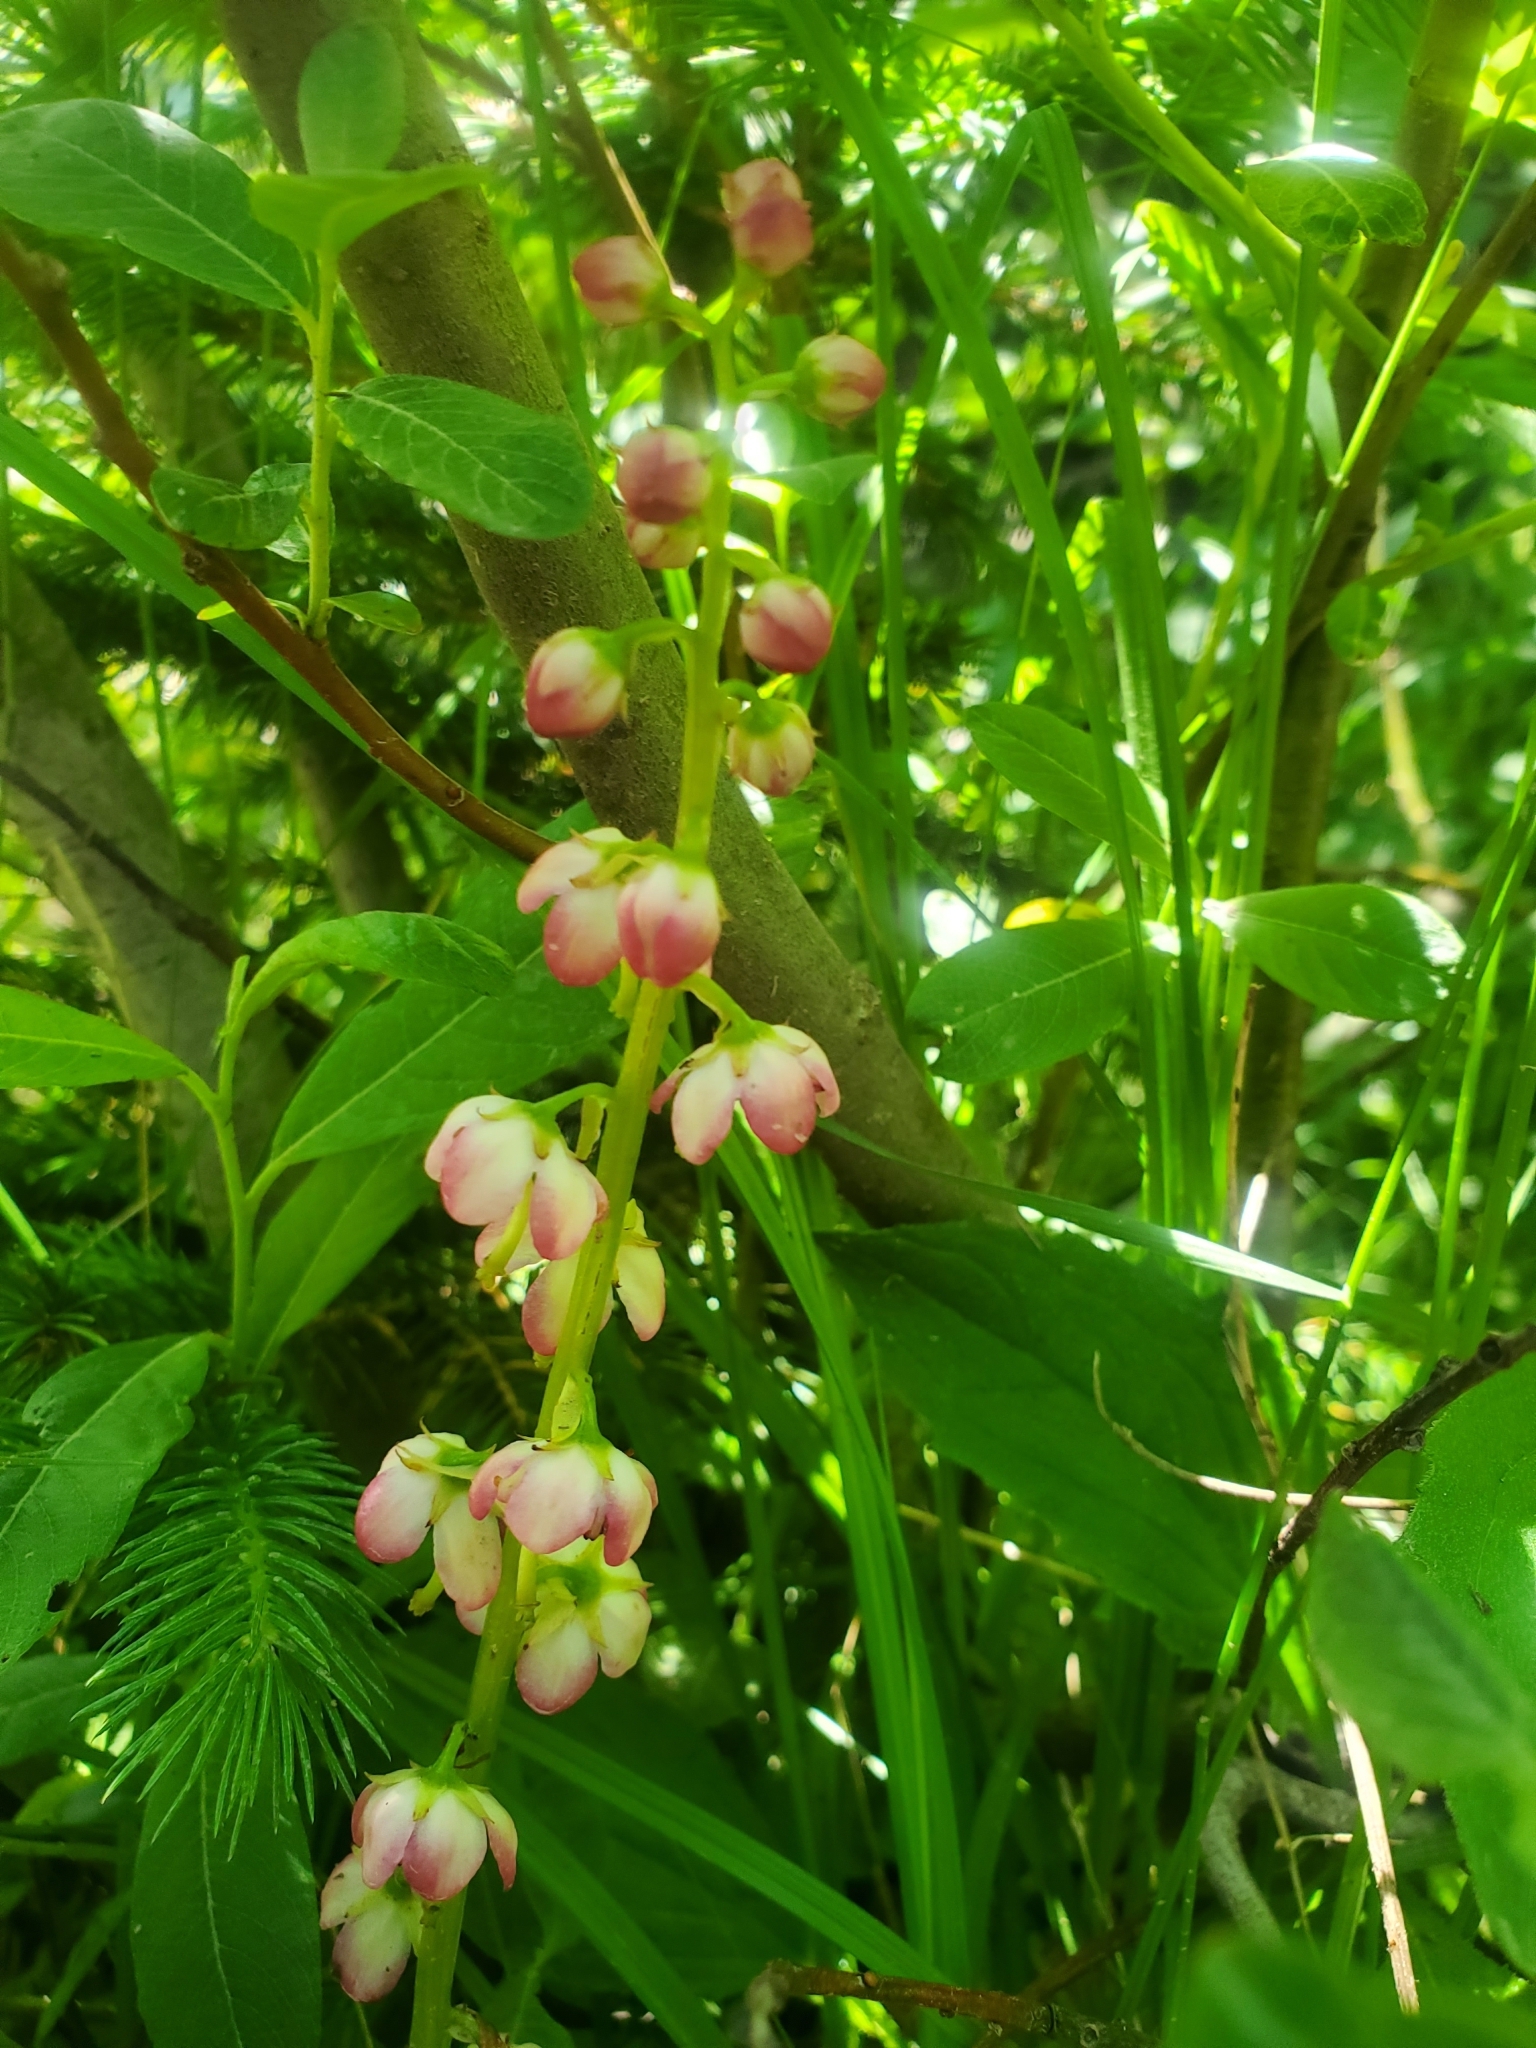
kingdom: Plantae
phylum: Tracheophyta
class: Magnoliopsida
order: Ericales
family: Ericaceae
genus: Pyrola
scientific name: Pyrola asarifolia
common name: Bog wintergreen
